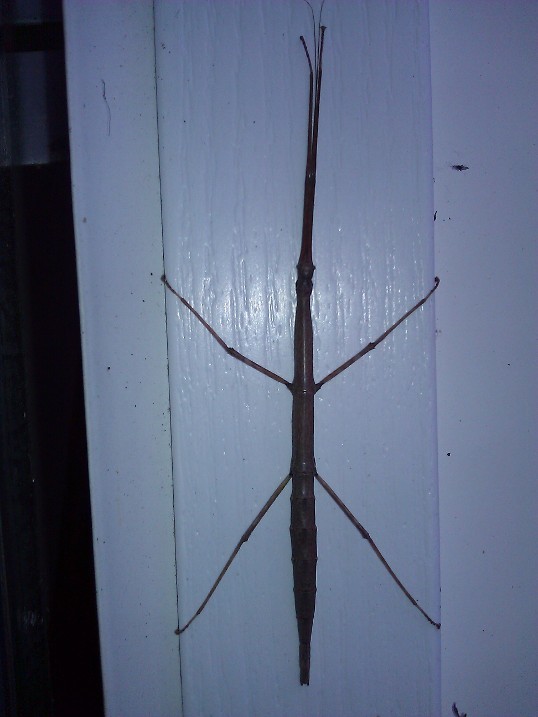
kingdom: Animalia
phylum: Arthropoda
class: Insecta
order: Phasmida
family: Diapheromeridae
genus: Diapheromera
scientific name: Diapheromera femorata
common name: Common american walkingstick
